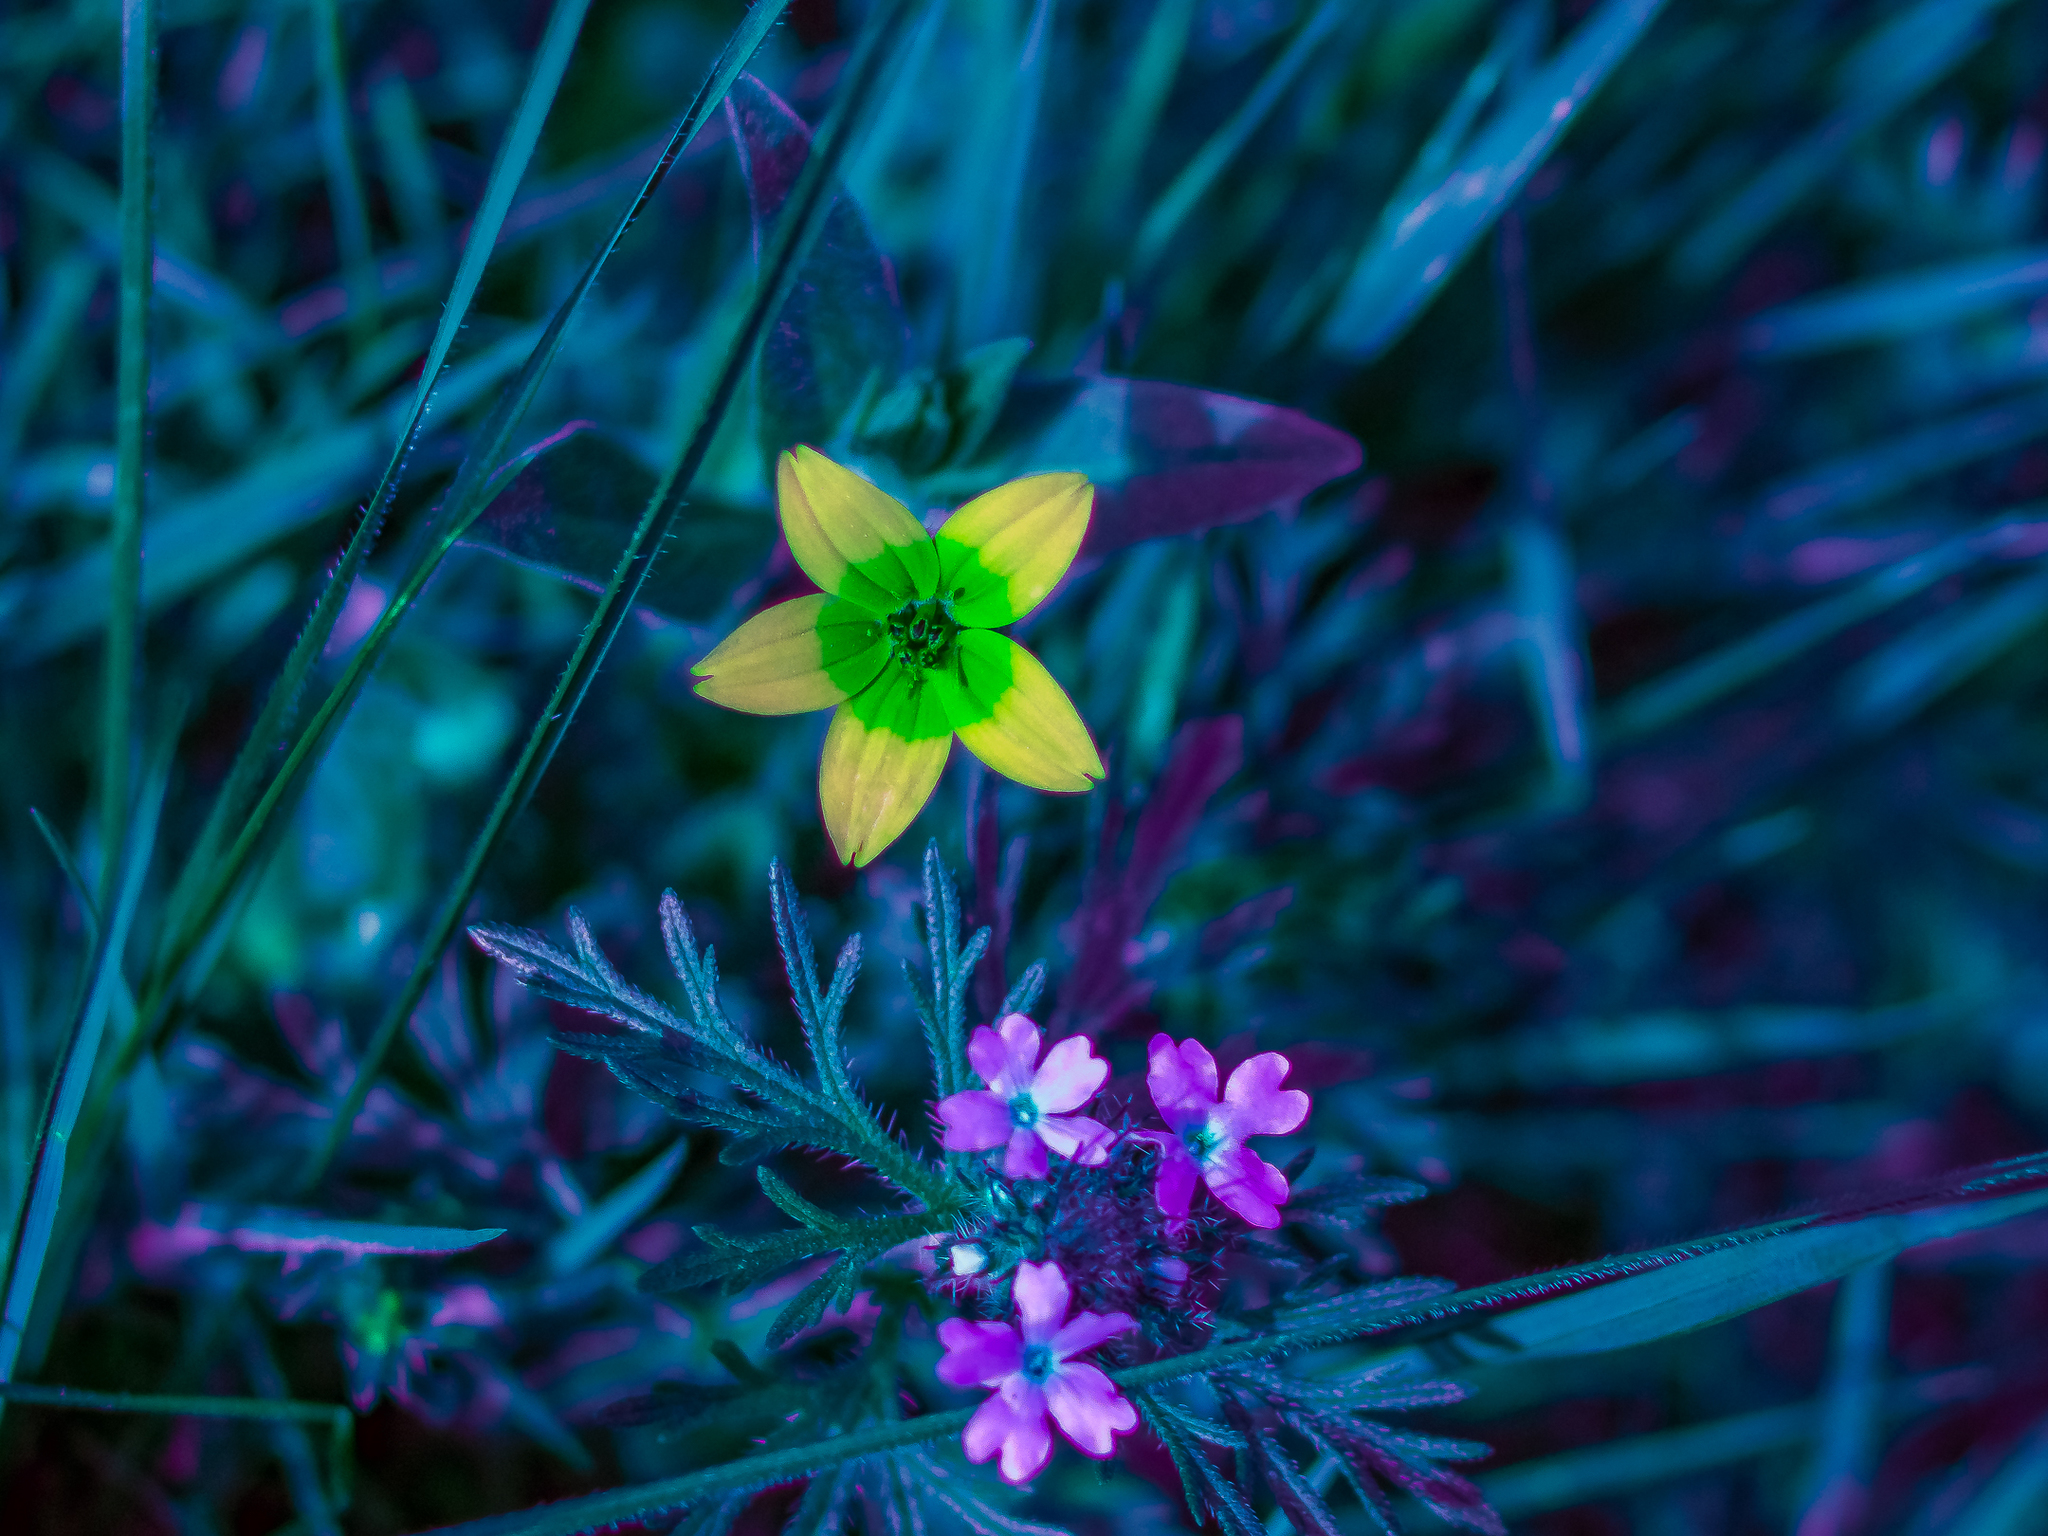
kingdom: Plantae
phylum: Tracheophyta
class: Magnoliopsida
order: Asterales
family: Asteraceae
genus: Lindheimera
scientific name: Lindheimera texana
